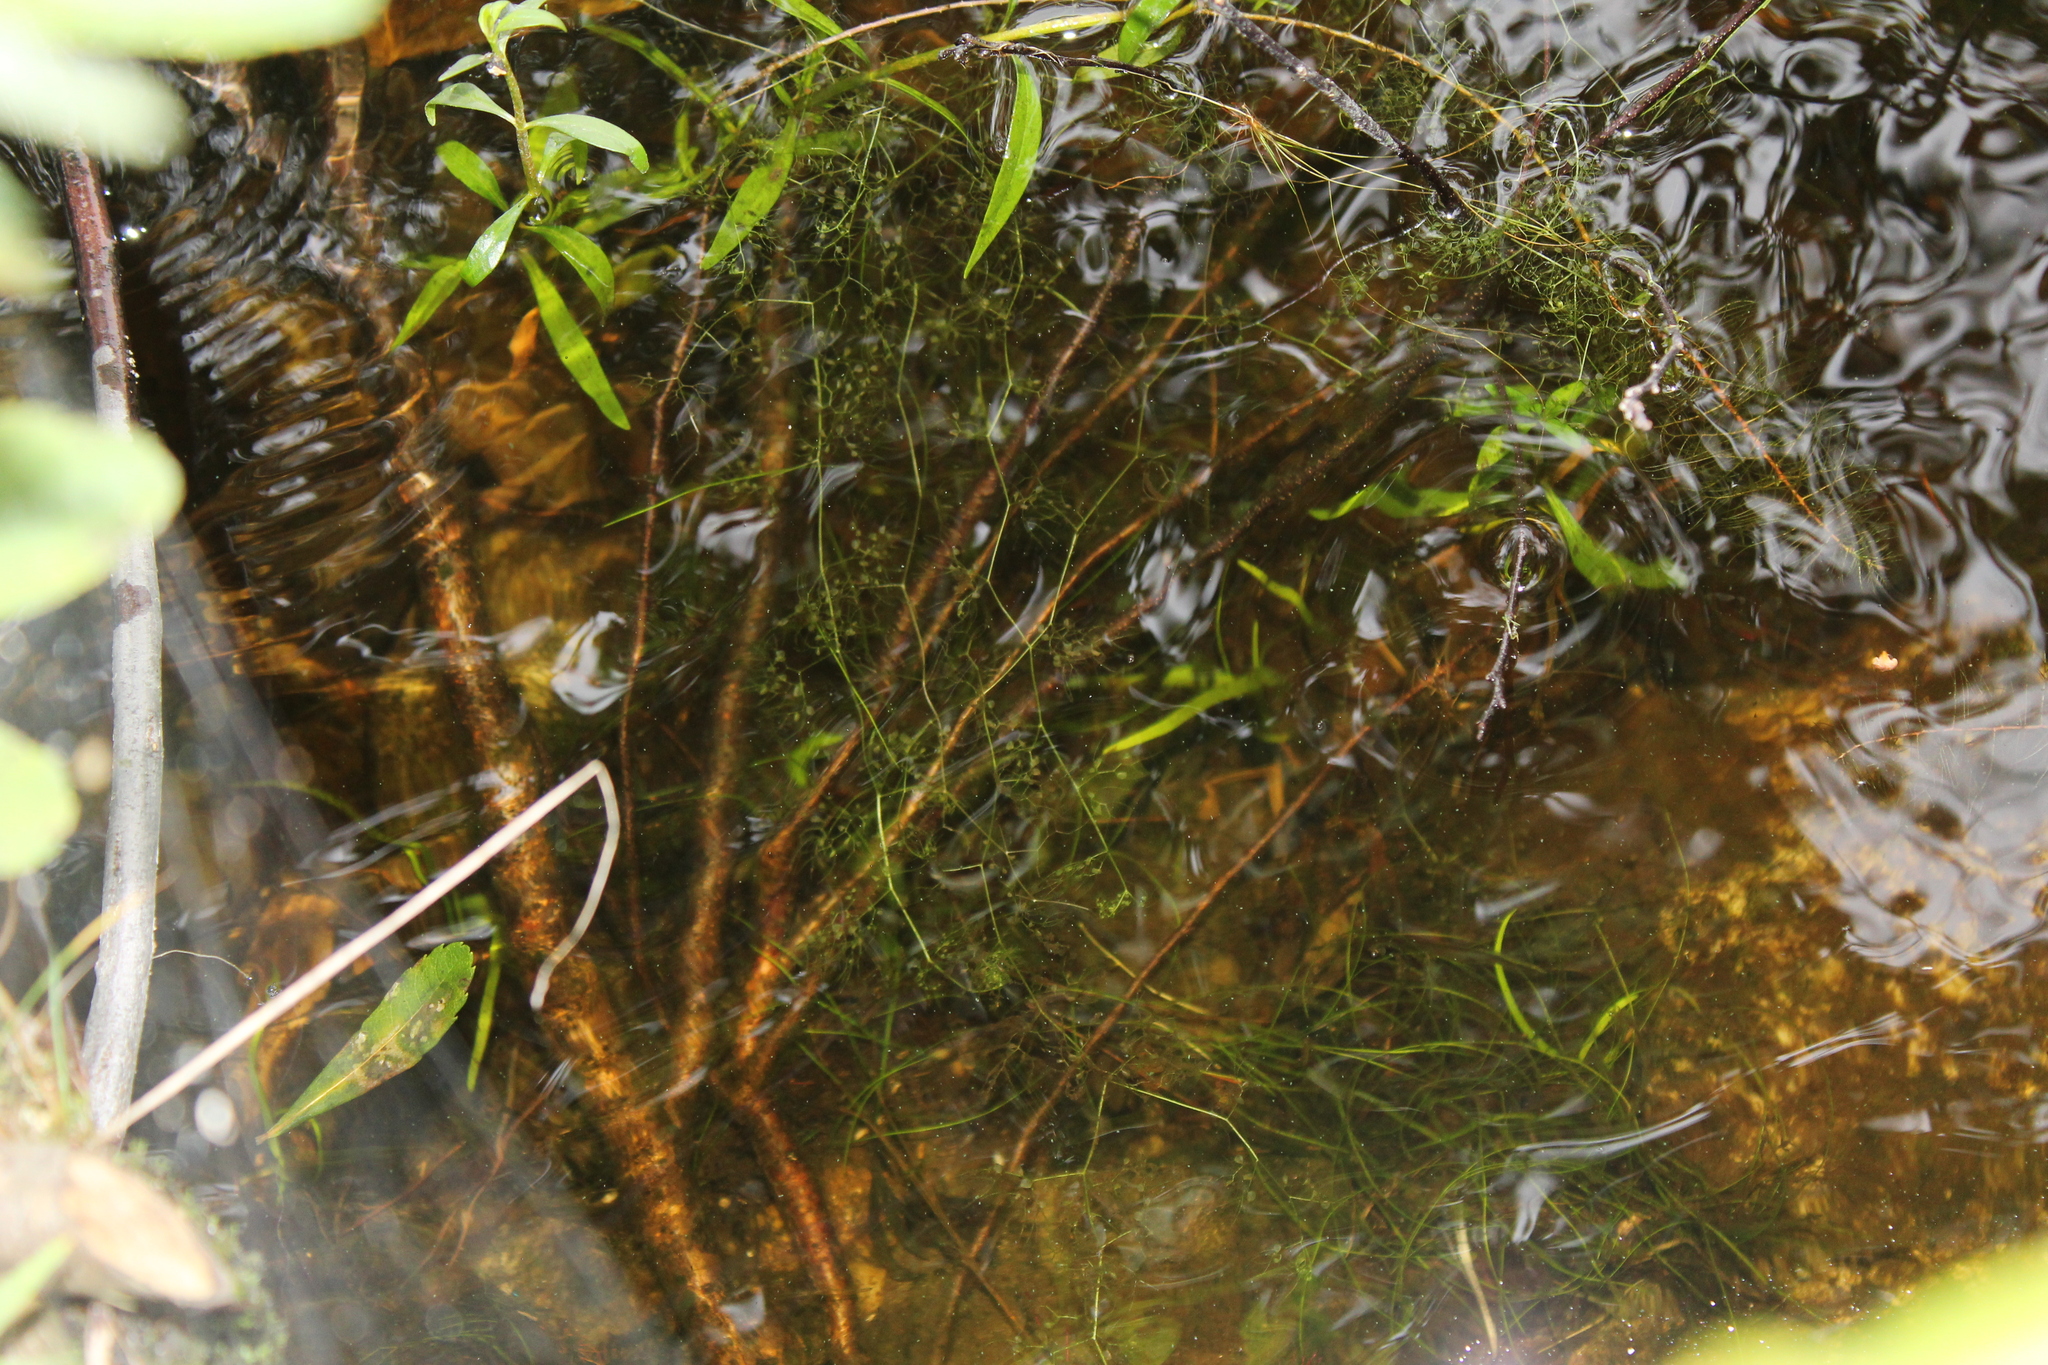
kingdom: Plantae
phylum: Tracheophyta
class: Magnoliopsida
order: Lamiales
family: Lentibulariaceae
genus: Utricularia
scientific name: Utricularia radiata
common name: Floating bladderwort
